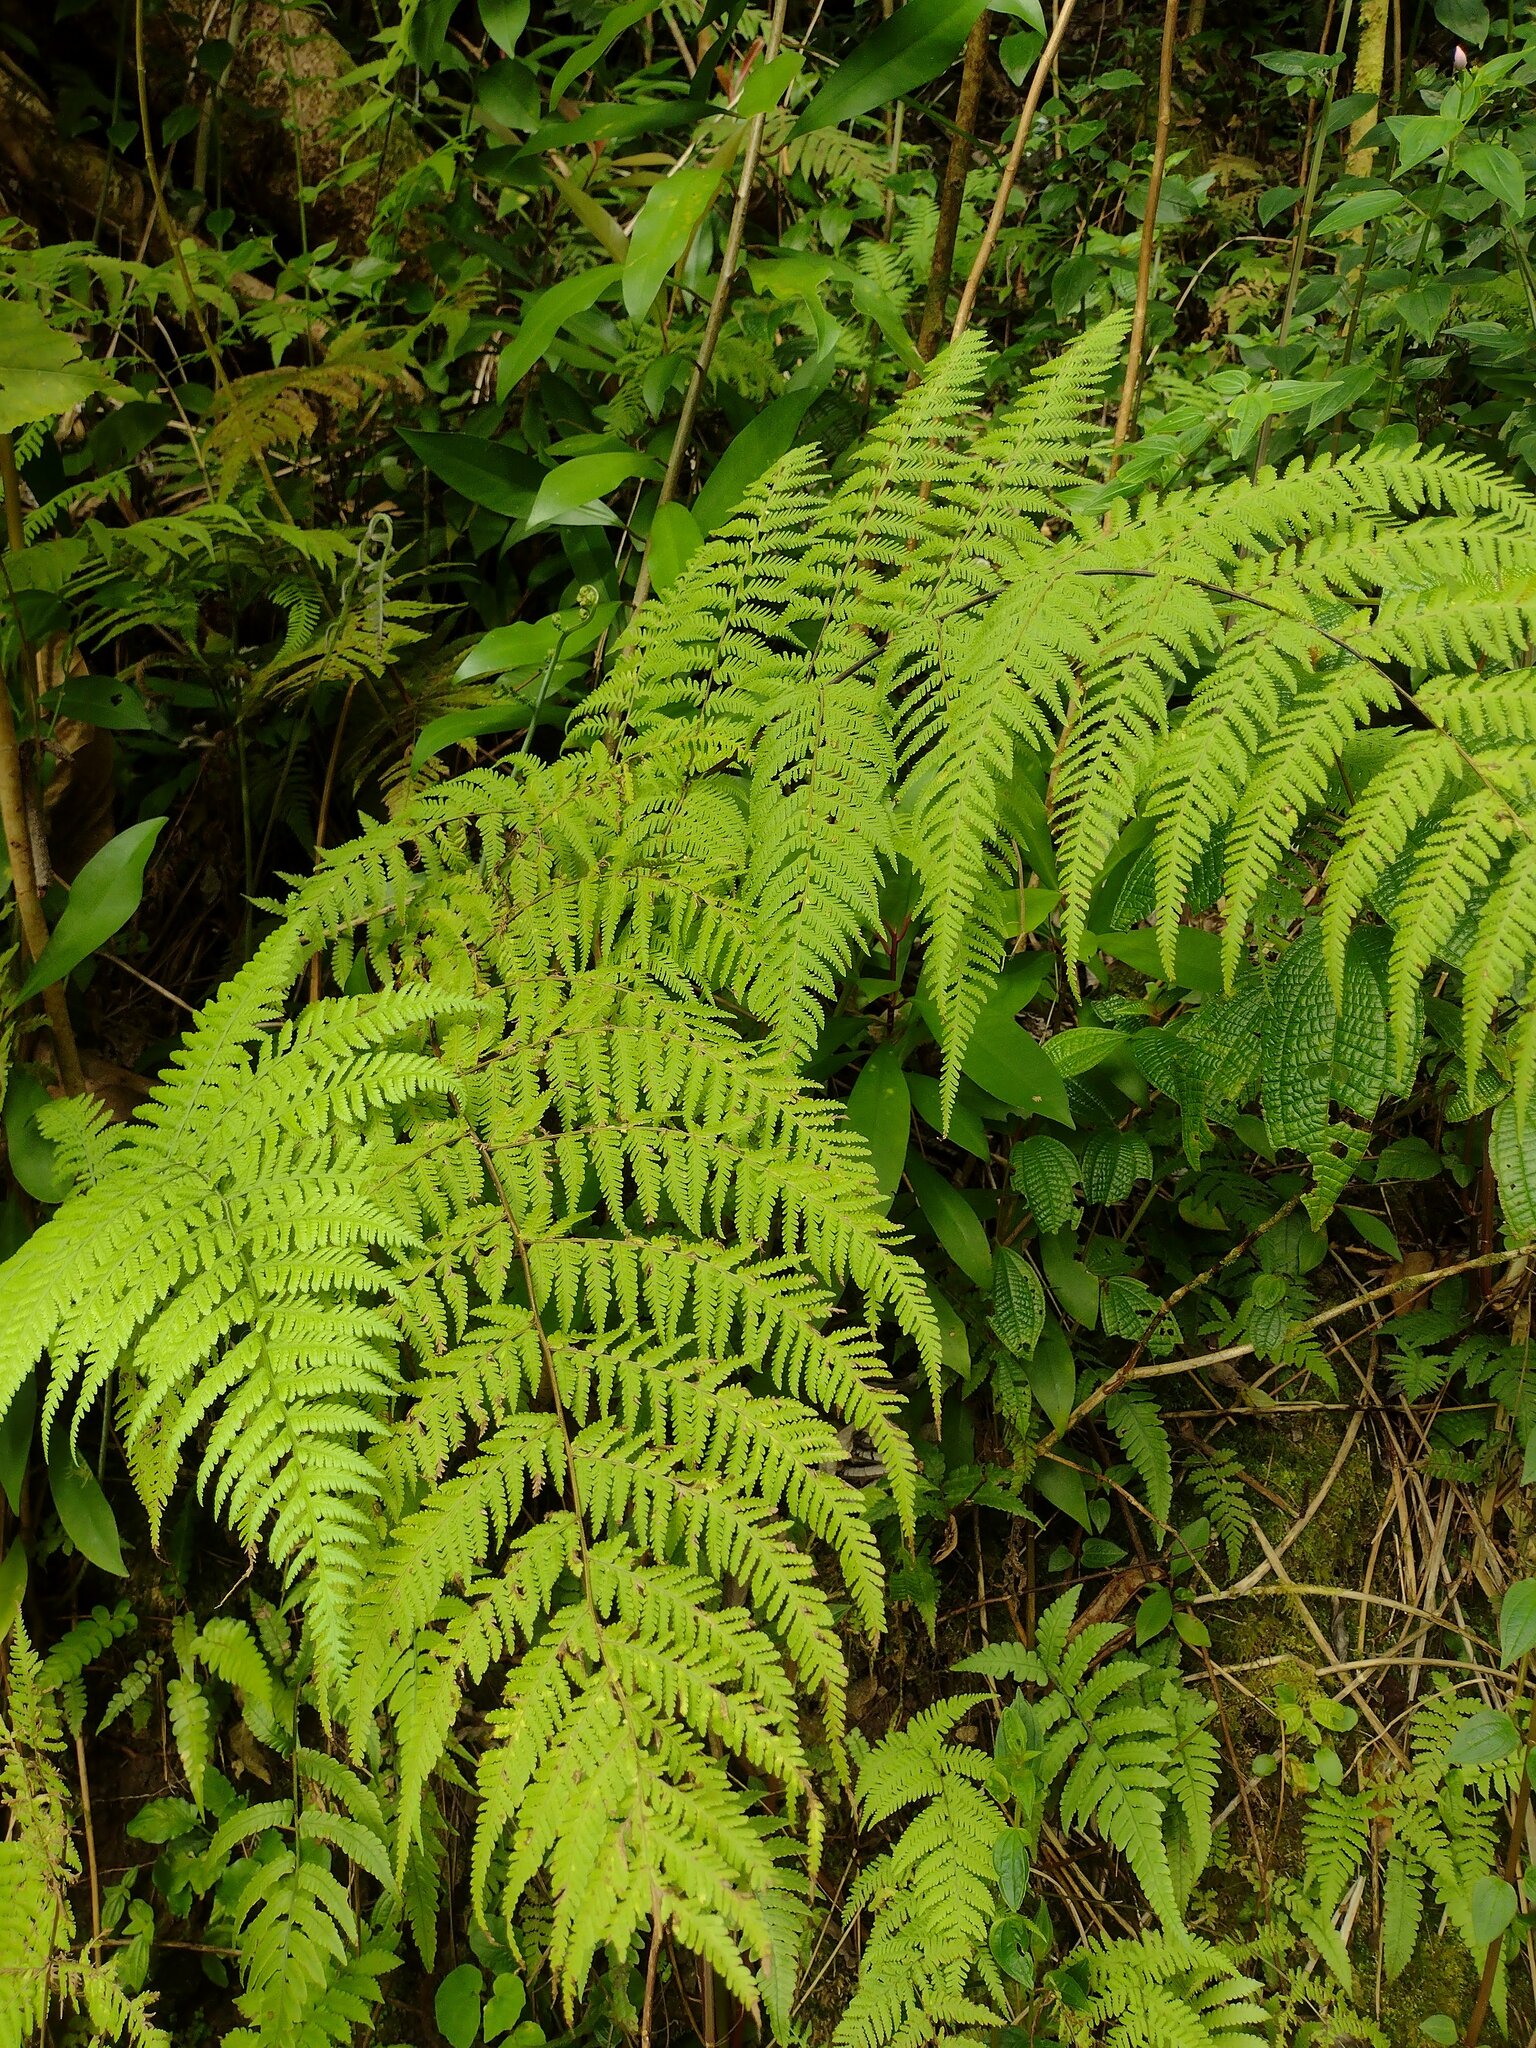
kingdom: Plantae
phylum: Tracheophyta
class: Polypodiopsida
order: Polypodiales
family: Thelypteridaceae
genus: Macrothelypteris
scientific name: Macrothelypteris torresiana
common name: Swordfern
